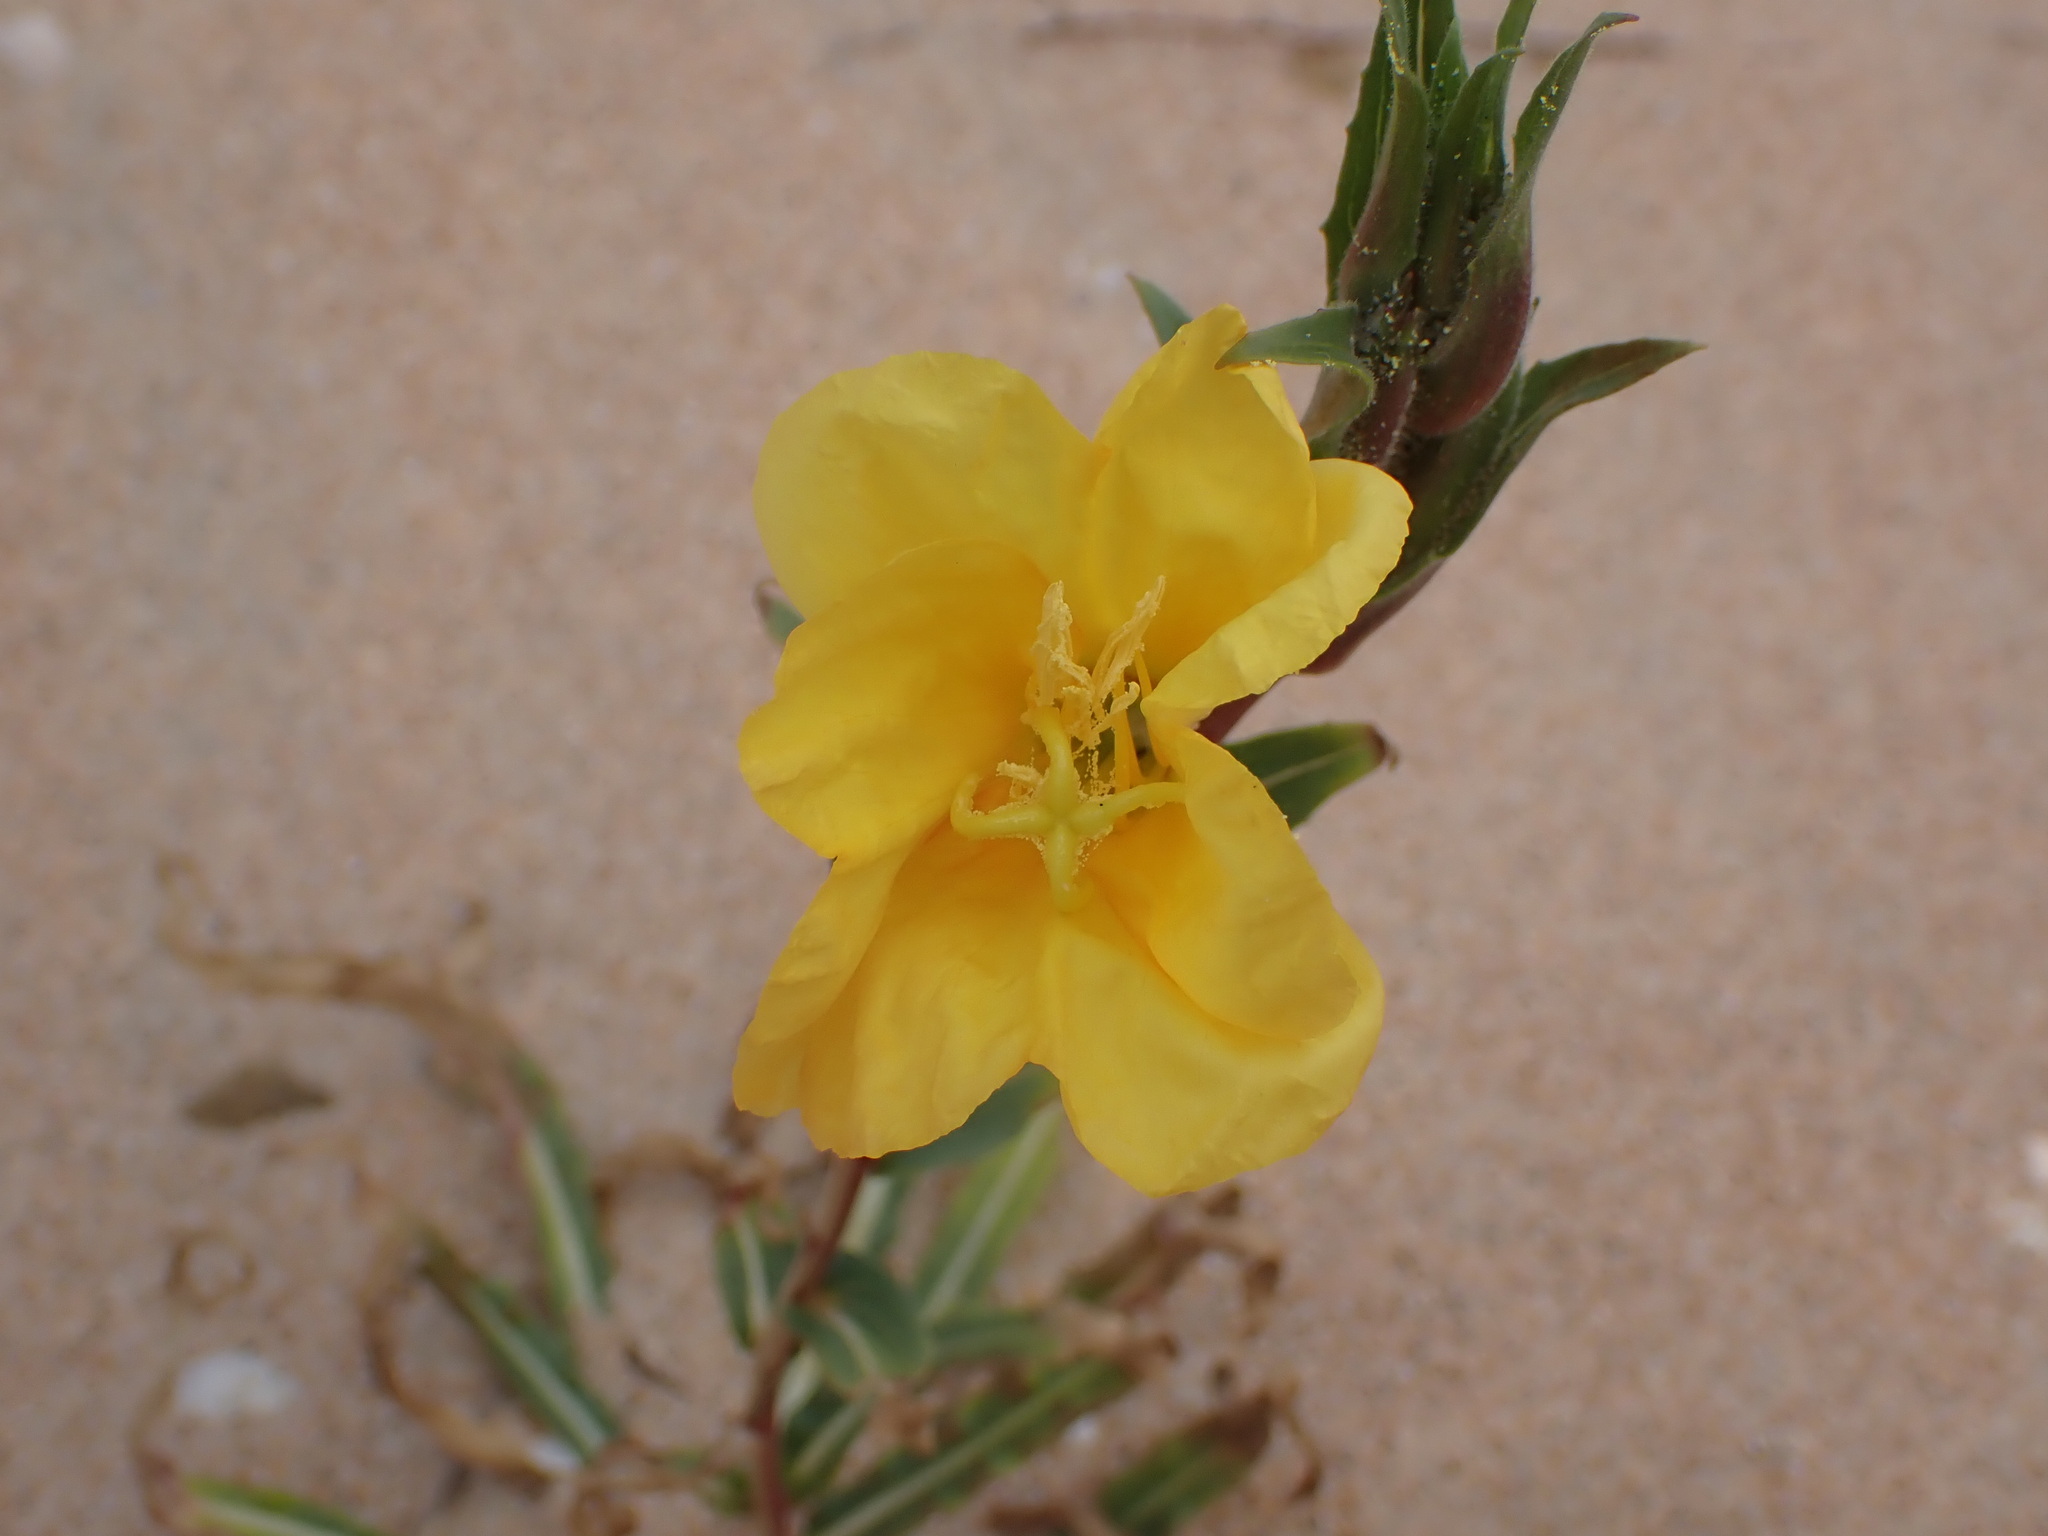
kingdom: Plantae
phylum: Tracheophyta
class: Magnoliopsida
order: Myrtales
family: Onagraceae
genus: Oenothera
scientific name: Oenothera stricta
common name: Fragrant evening-primrose
